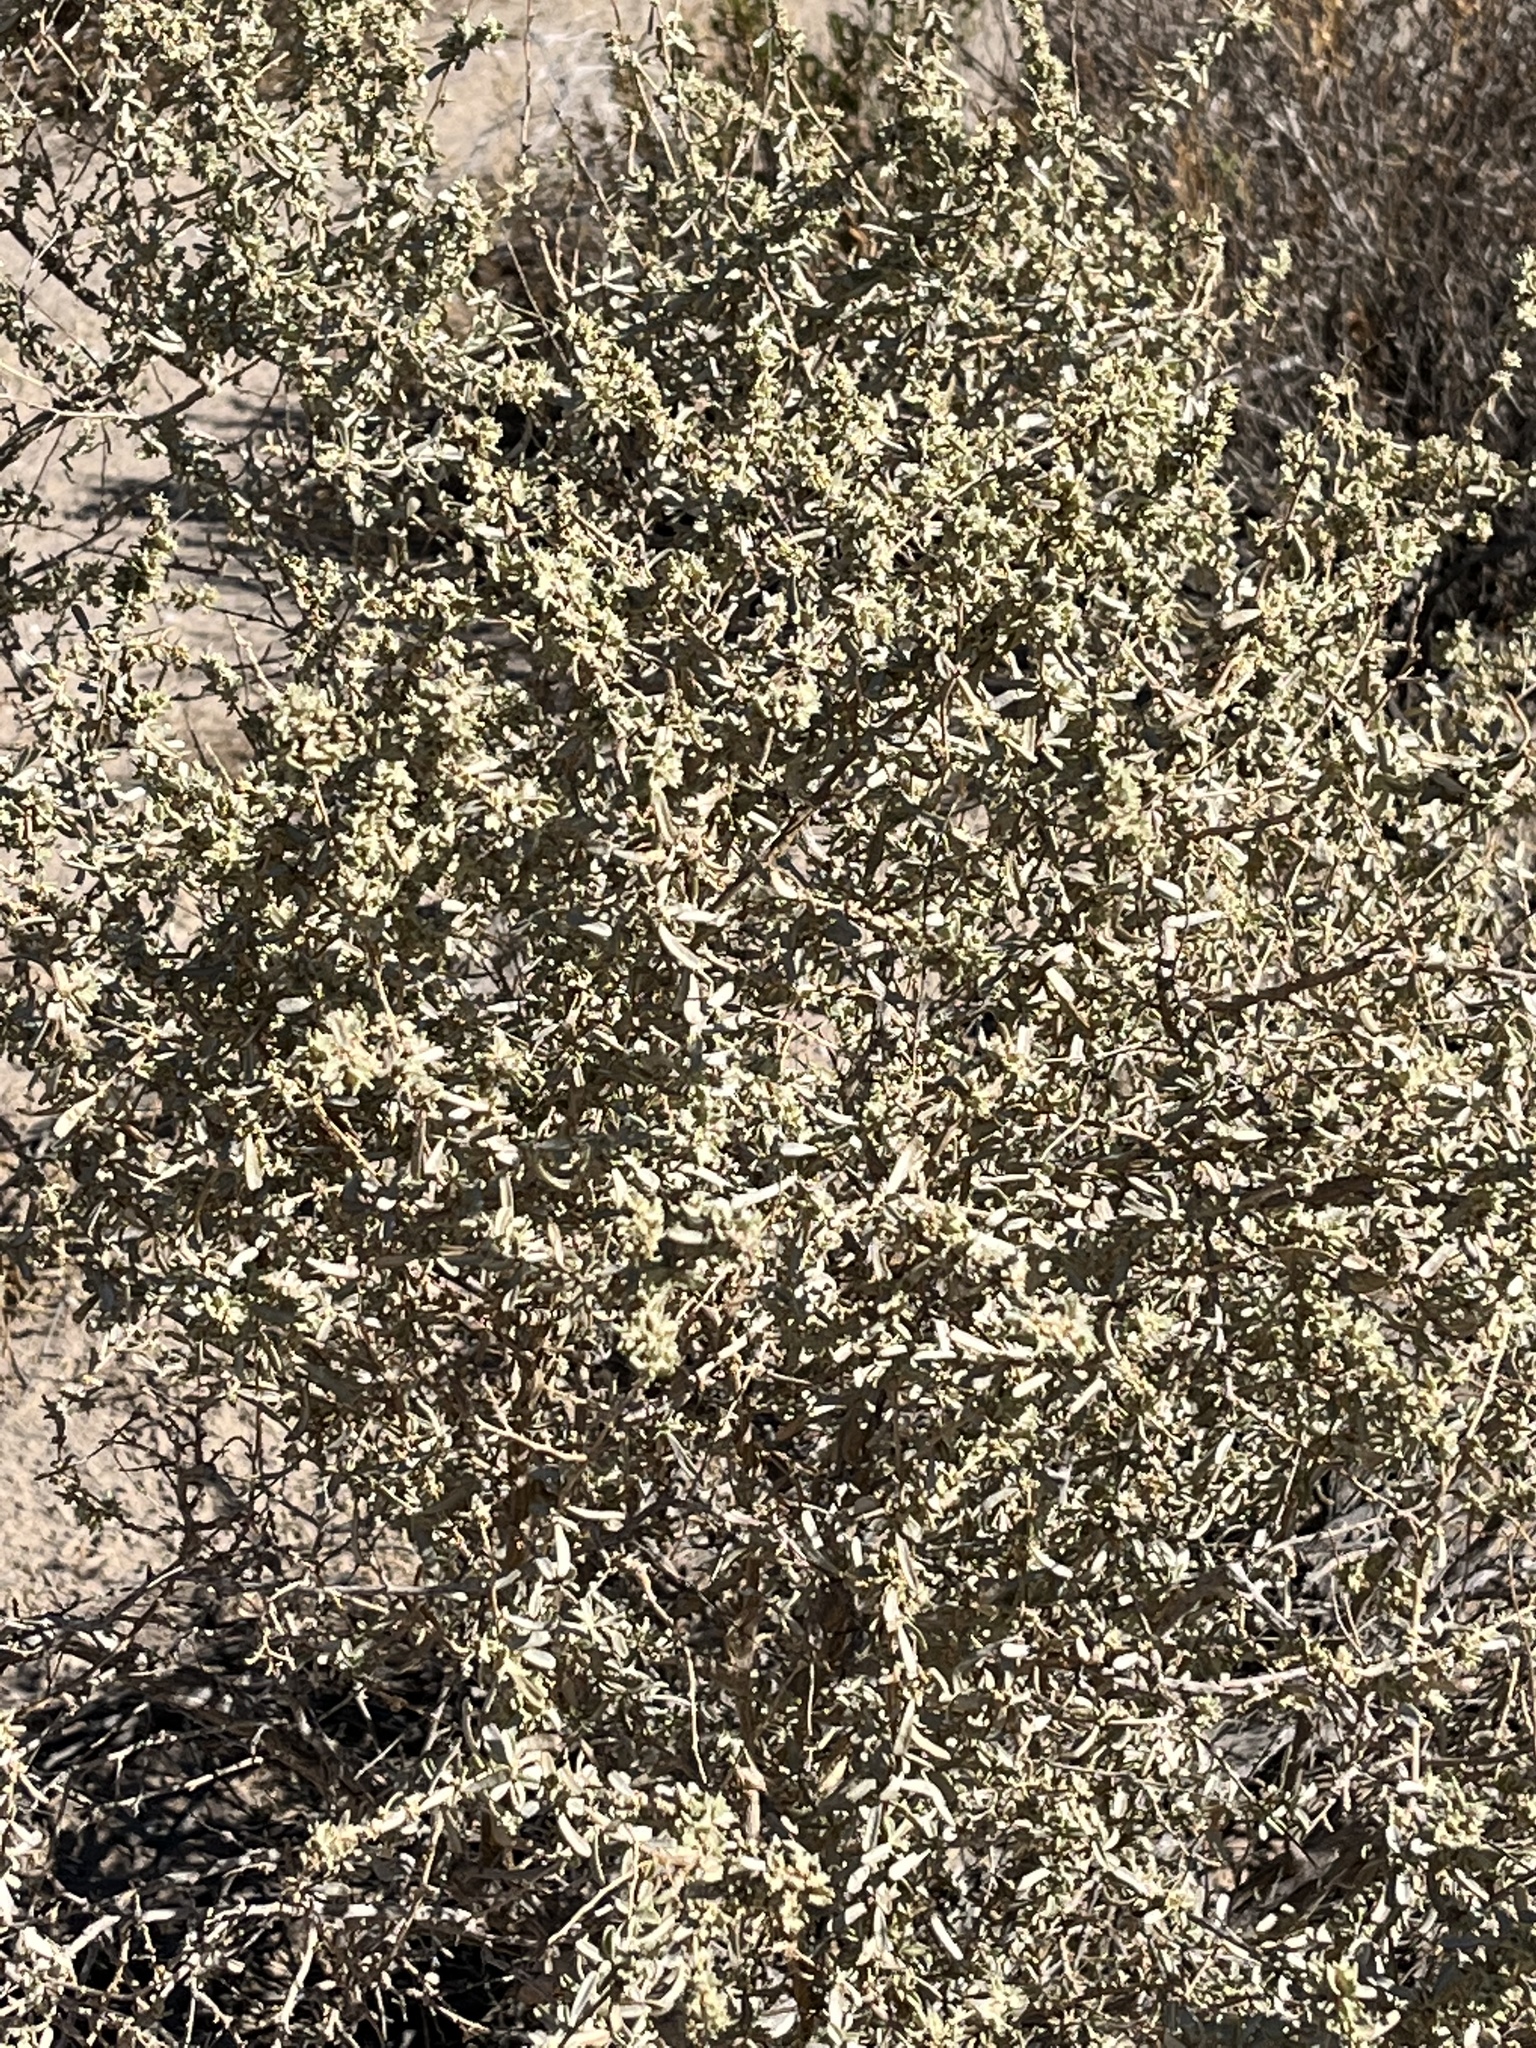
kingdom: Plantae
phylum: Tracheophyta
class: Magnoliopsida
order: Caryophyllales
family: Amaranthaceae
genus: Atriplex
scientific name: Atriplex canescens
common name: Four-wing saltbush
